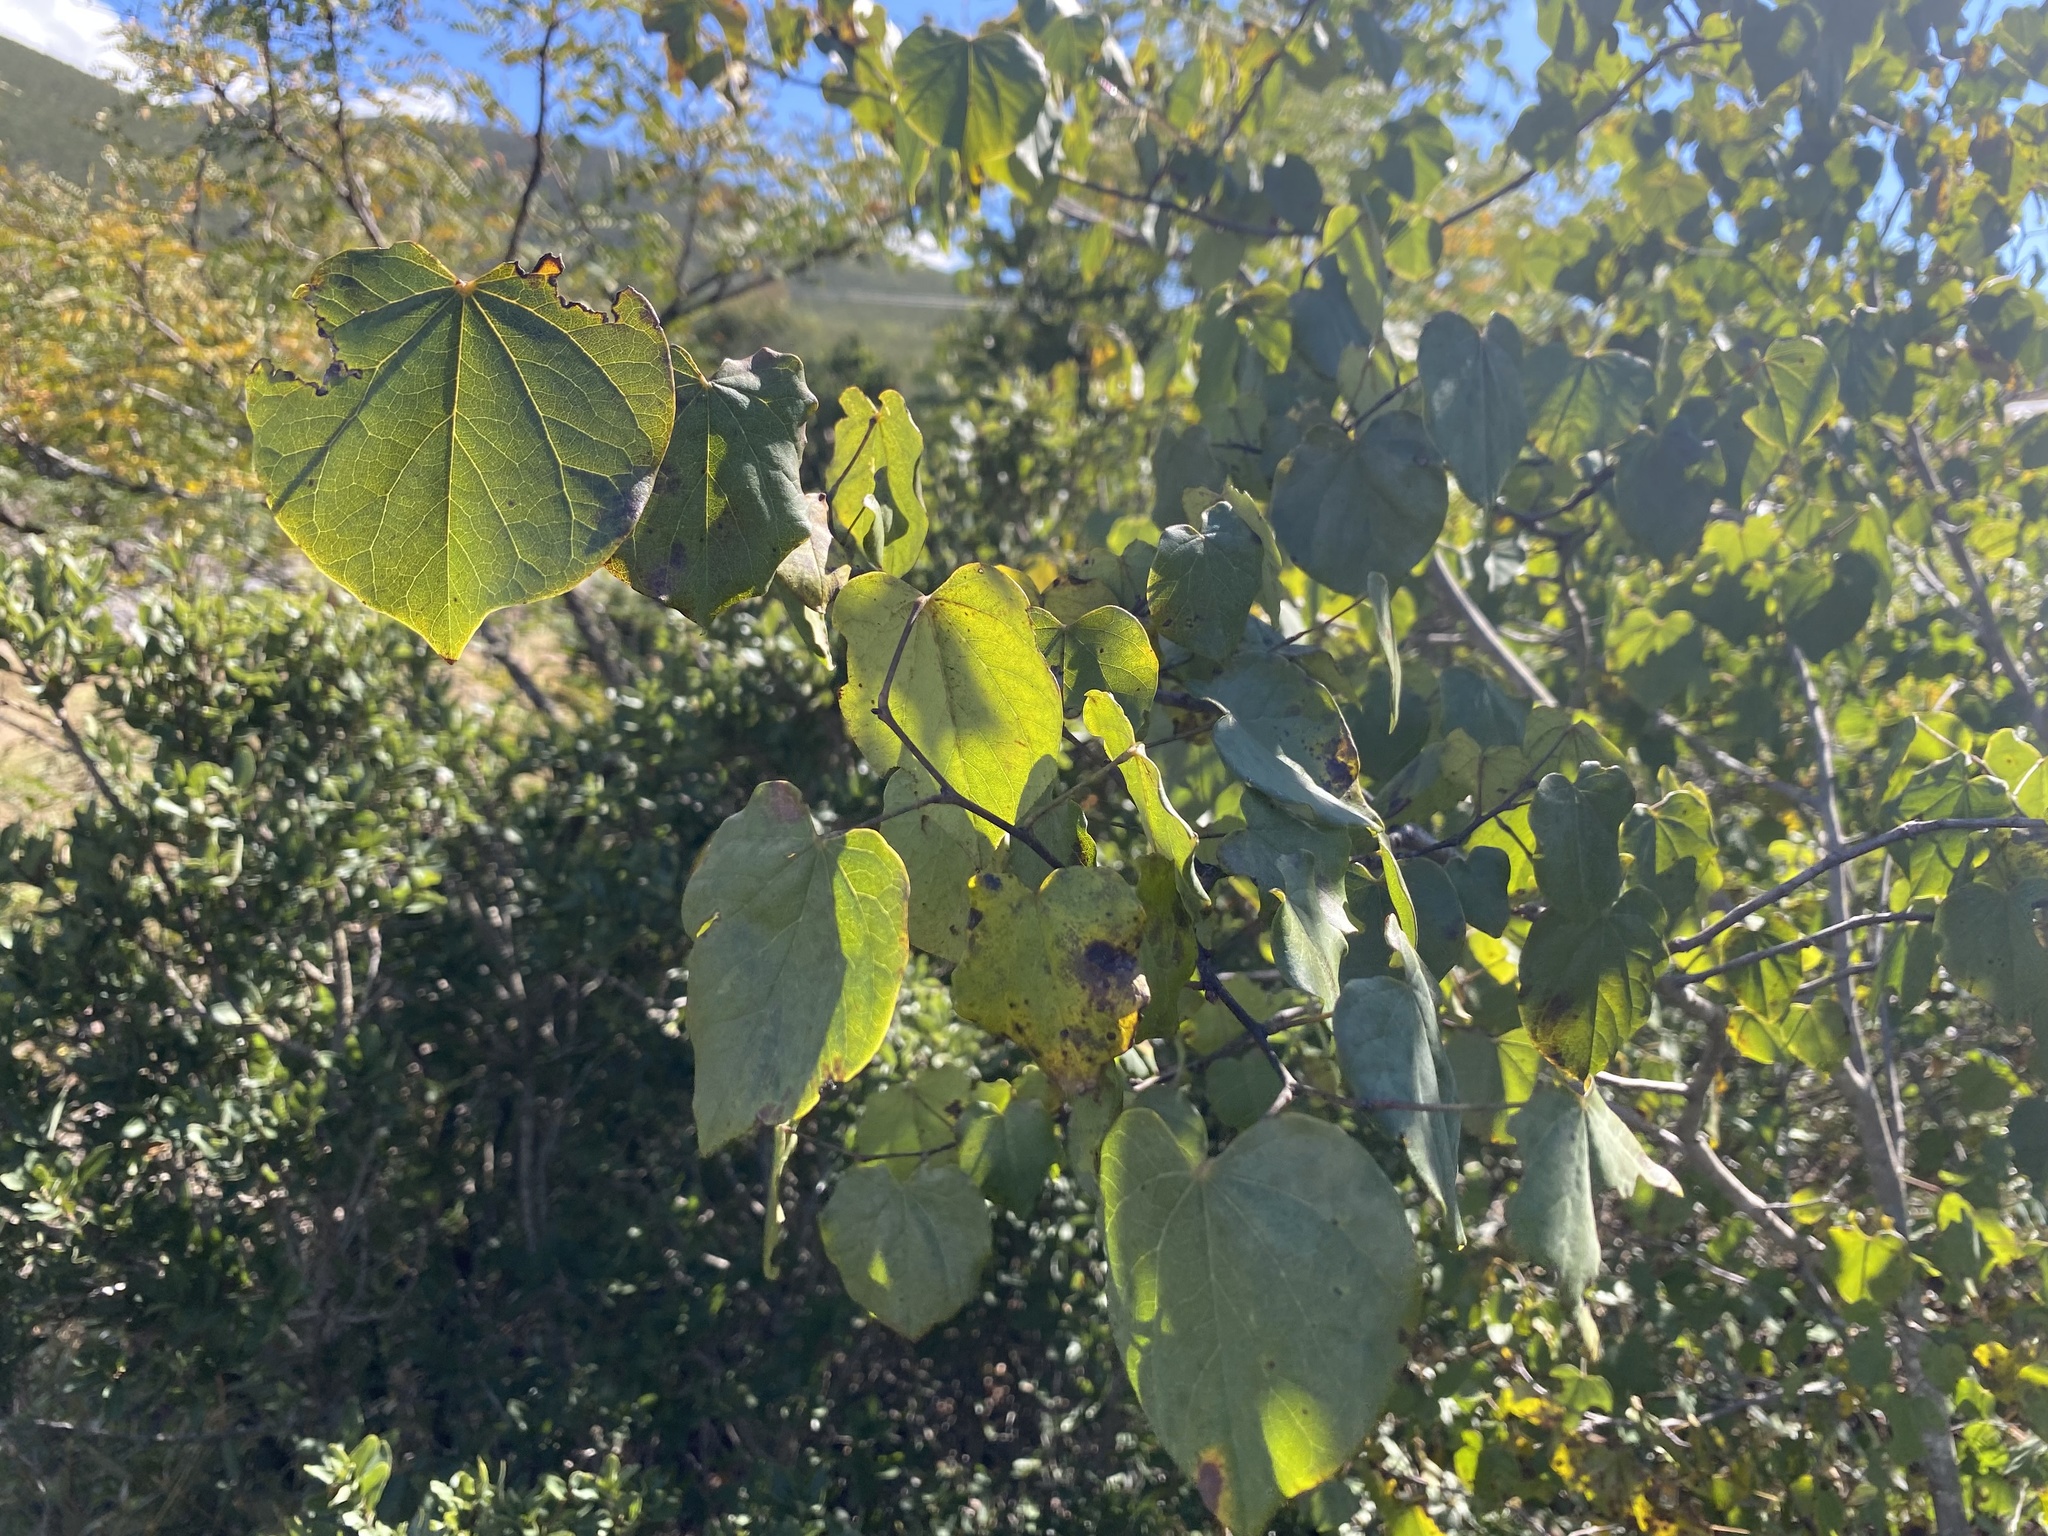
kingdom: Plantae
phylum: Tracheophyta
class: Magnoliopsida
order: Fabales
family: Fabaceae
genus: Cercis
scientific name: Cercis canadensis
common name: Eastern redbud
